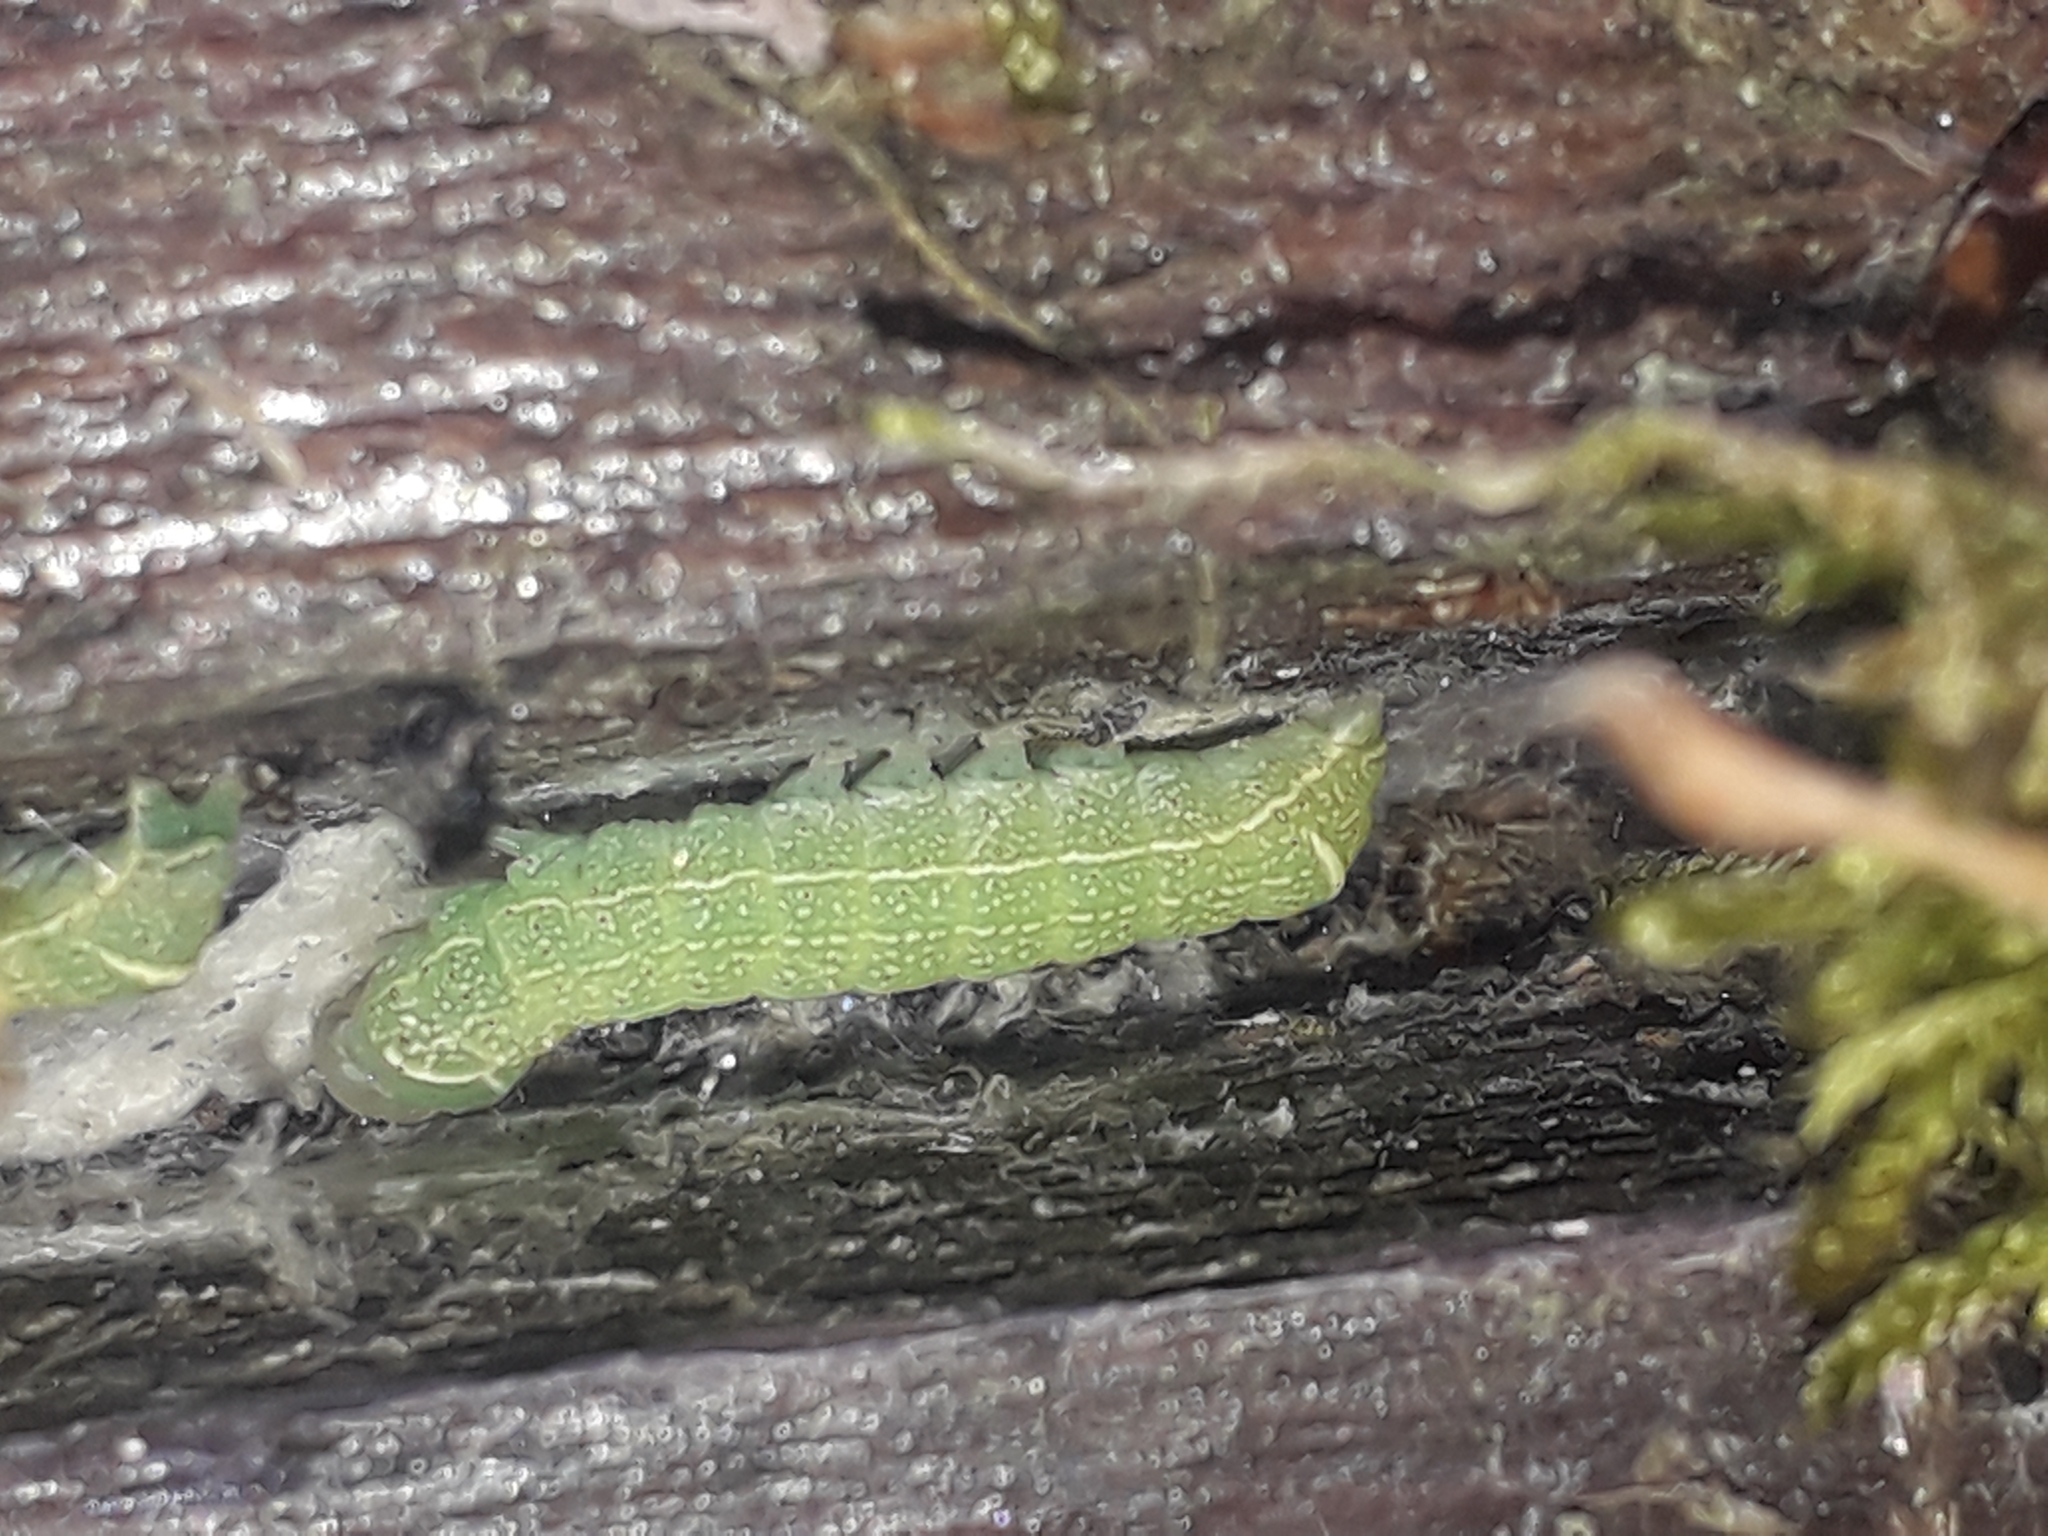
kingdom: Animalia
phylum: Arthropoda
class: Insecta
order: Lepidoptera
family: Noctuidae
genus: Orthosia
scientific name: Orthosia cerasi
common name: Common quaker
